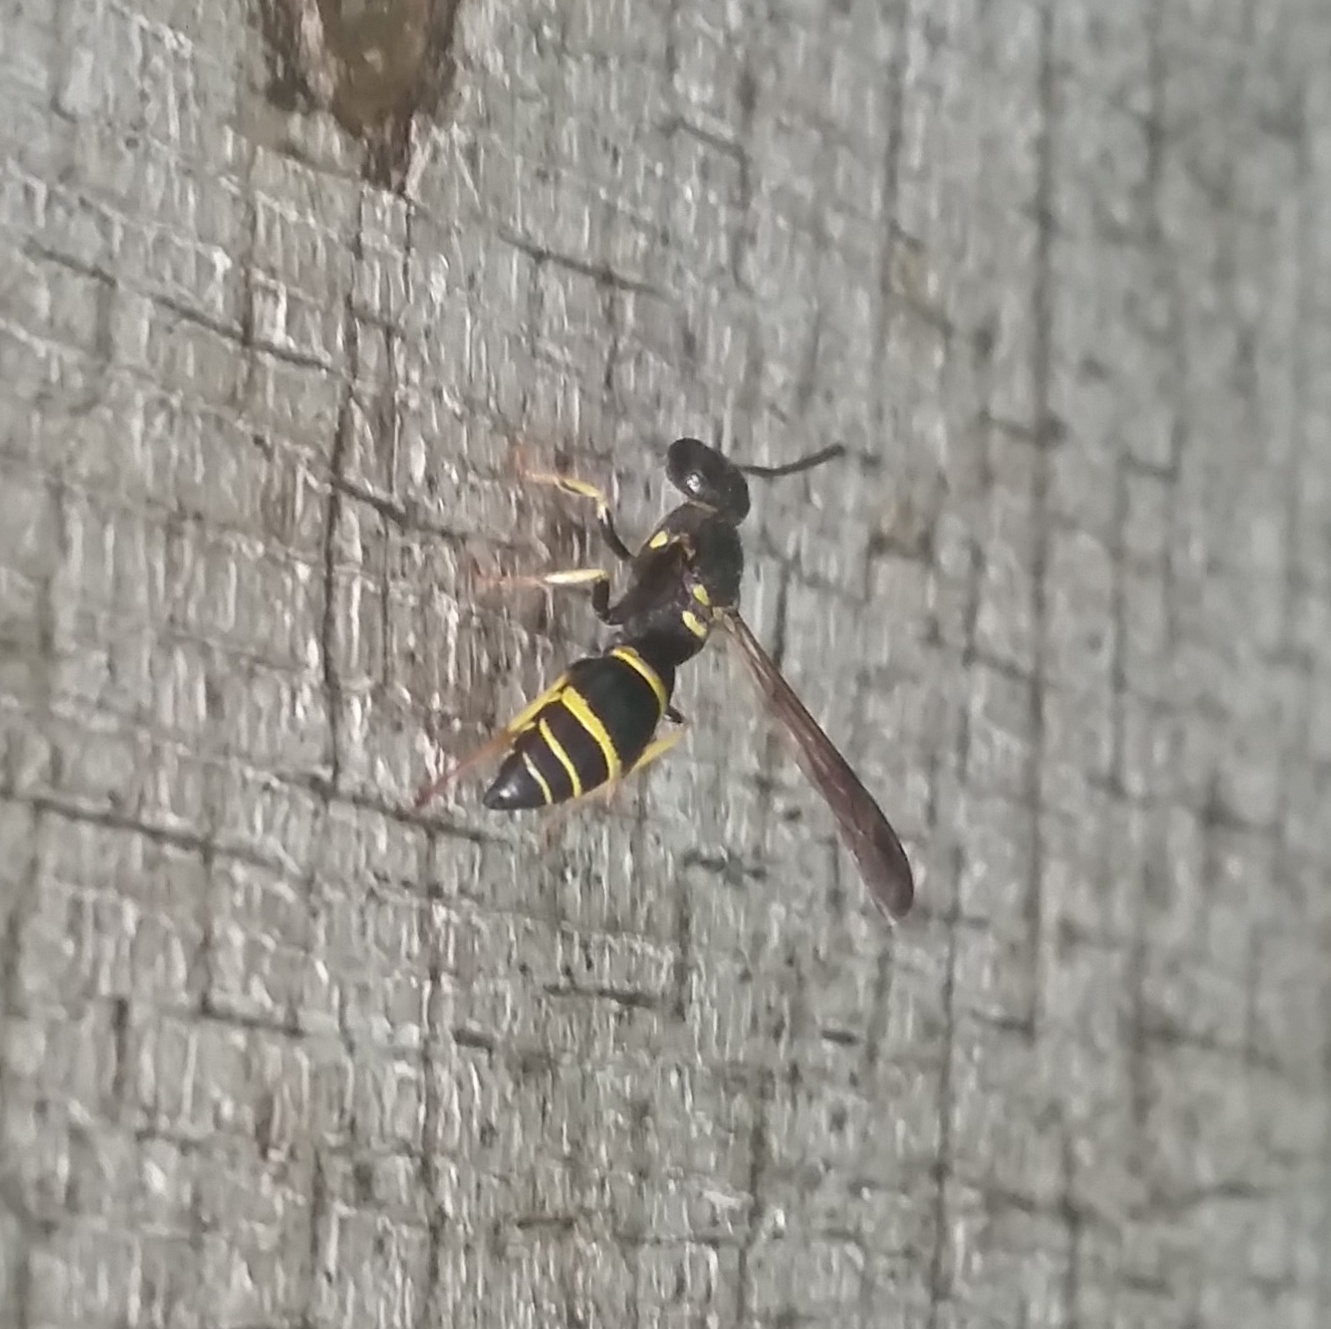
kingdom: Animalia
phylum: Arthropoda
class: Insecta
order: Hymenoptera
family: Vespidae
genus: Ancistrocerus
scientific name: Ancistrocerus adiabatus
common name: Bramble mason wasp
